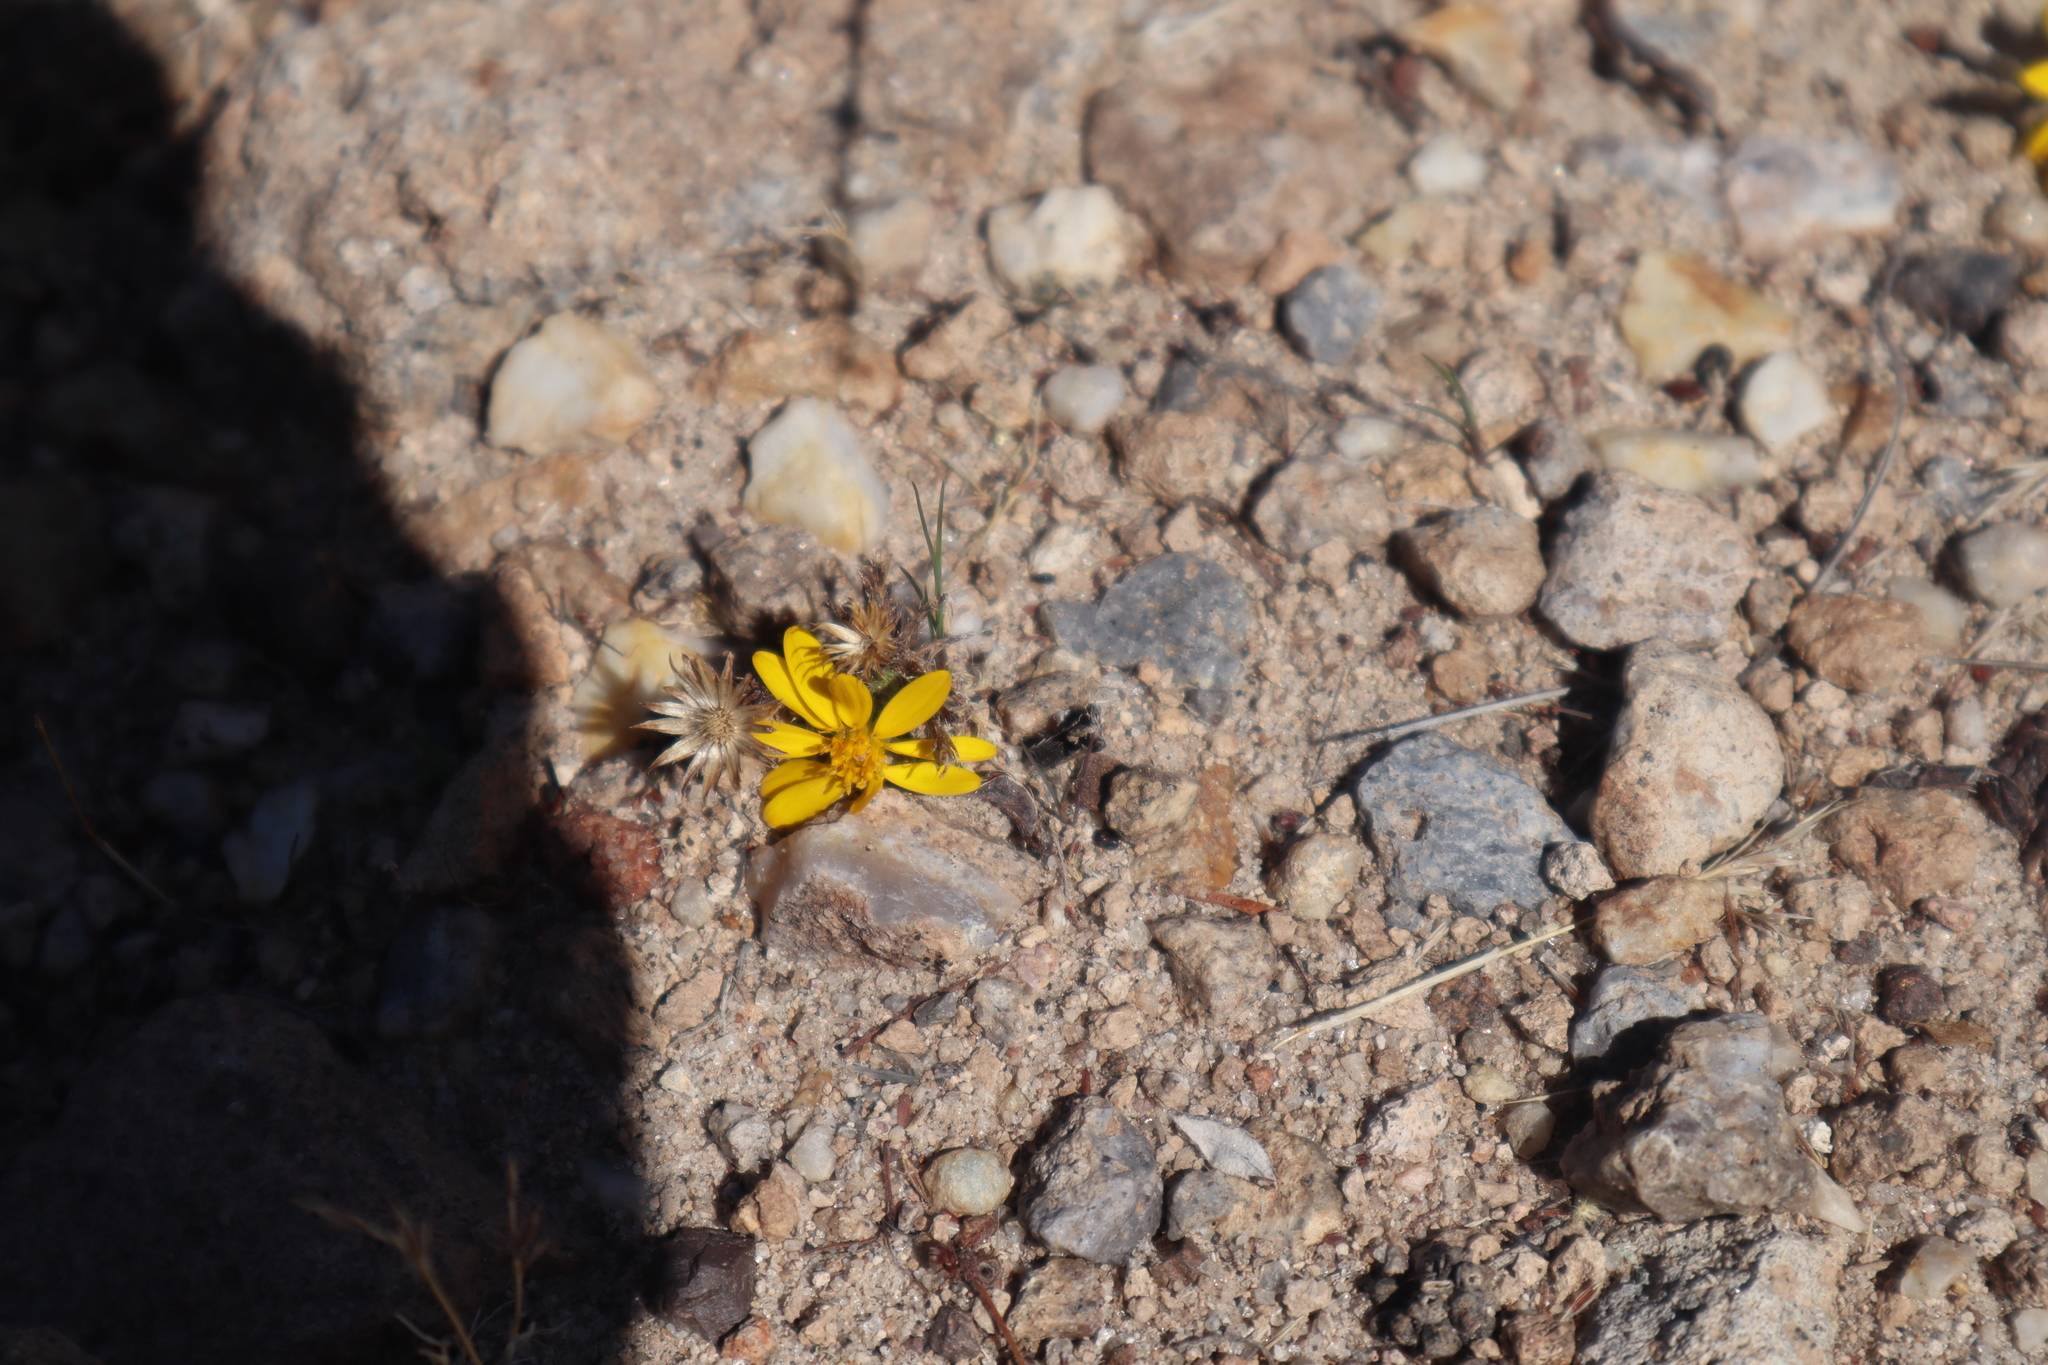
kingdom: Plantae
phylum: Tracheophyta
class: Magnoliopsida
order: Asterales
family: Asteraceae
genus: Xanthisma
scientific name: Xanthisma spinulosum
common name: Spiny goldenweed
